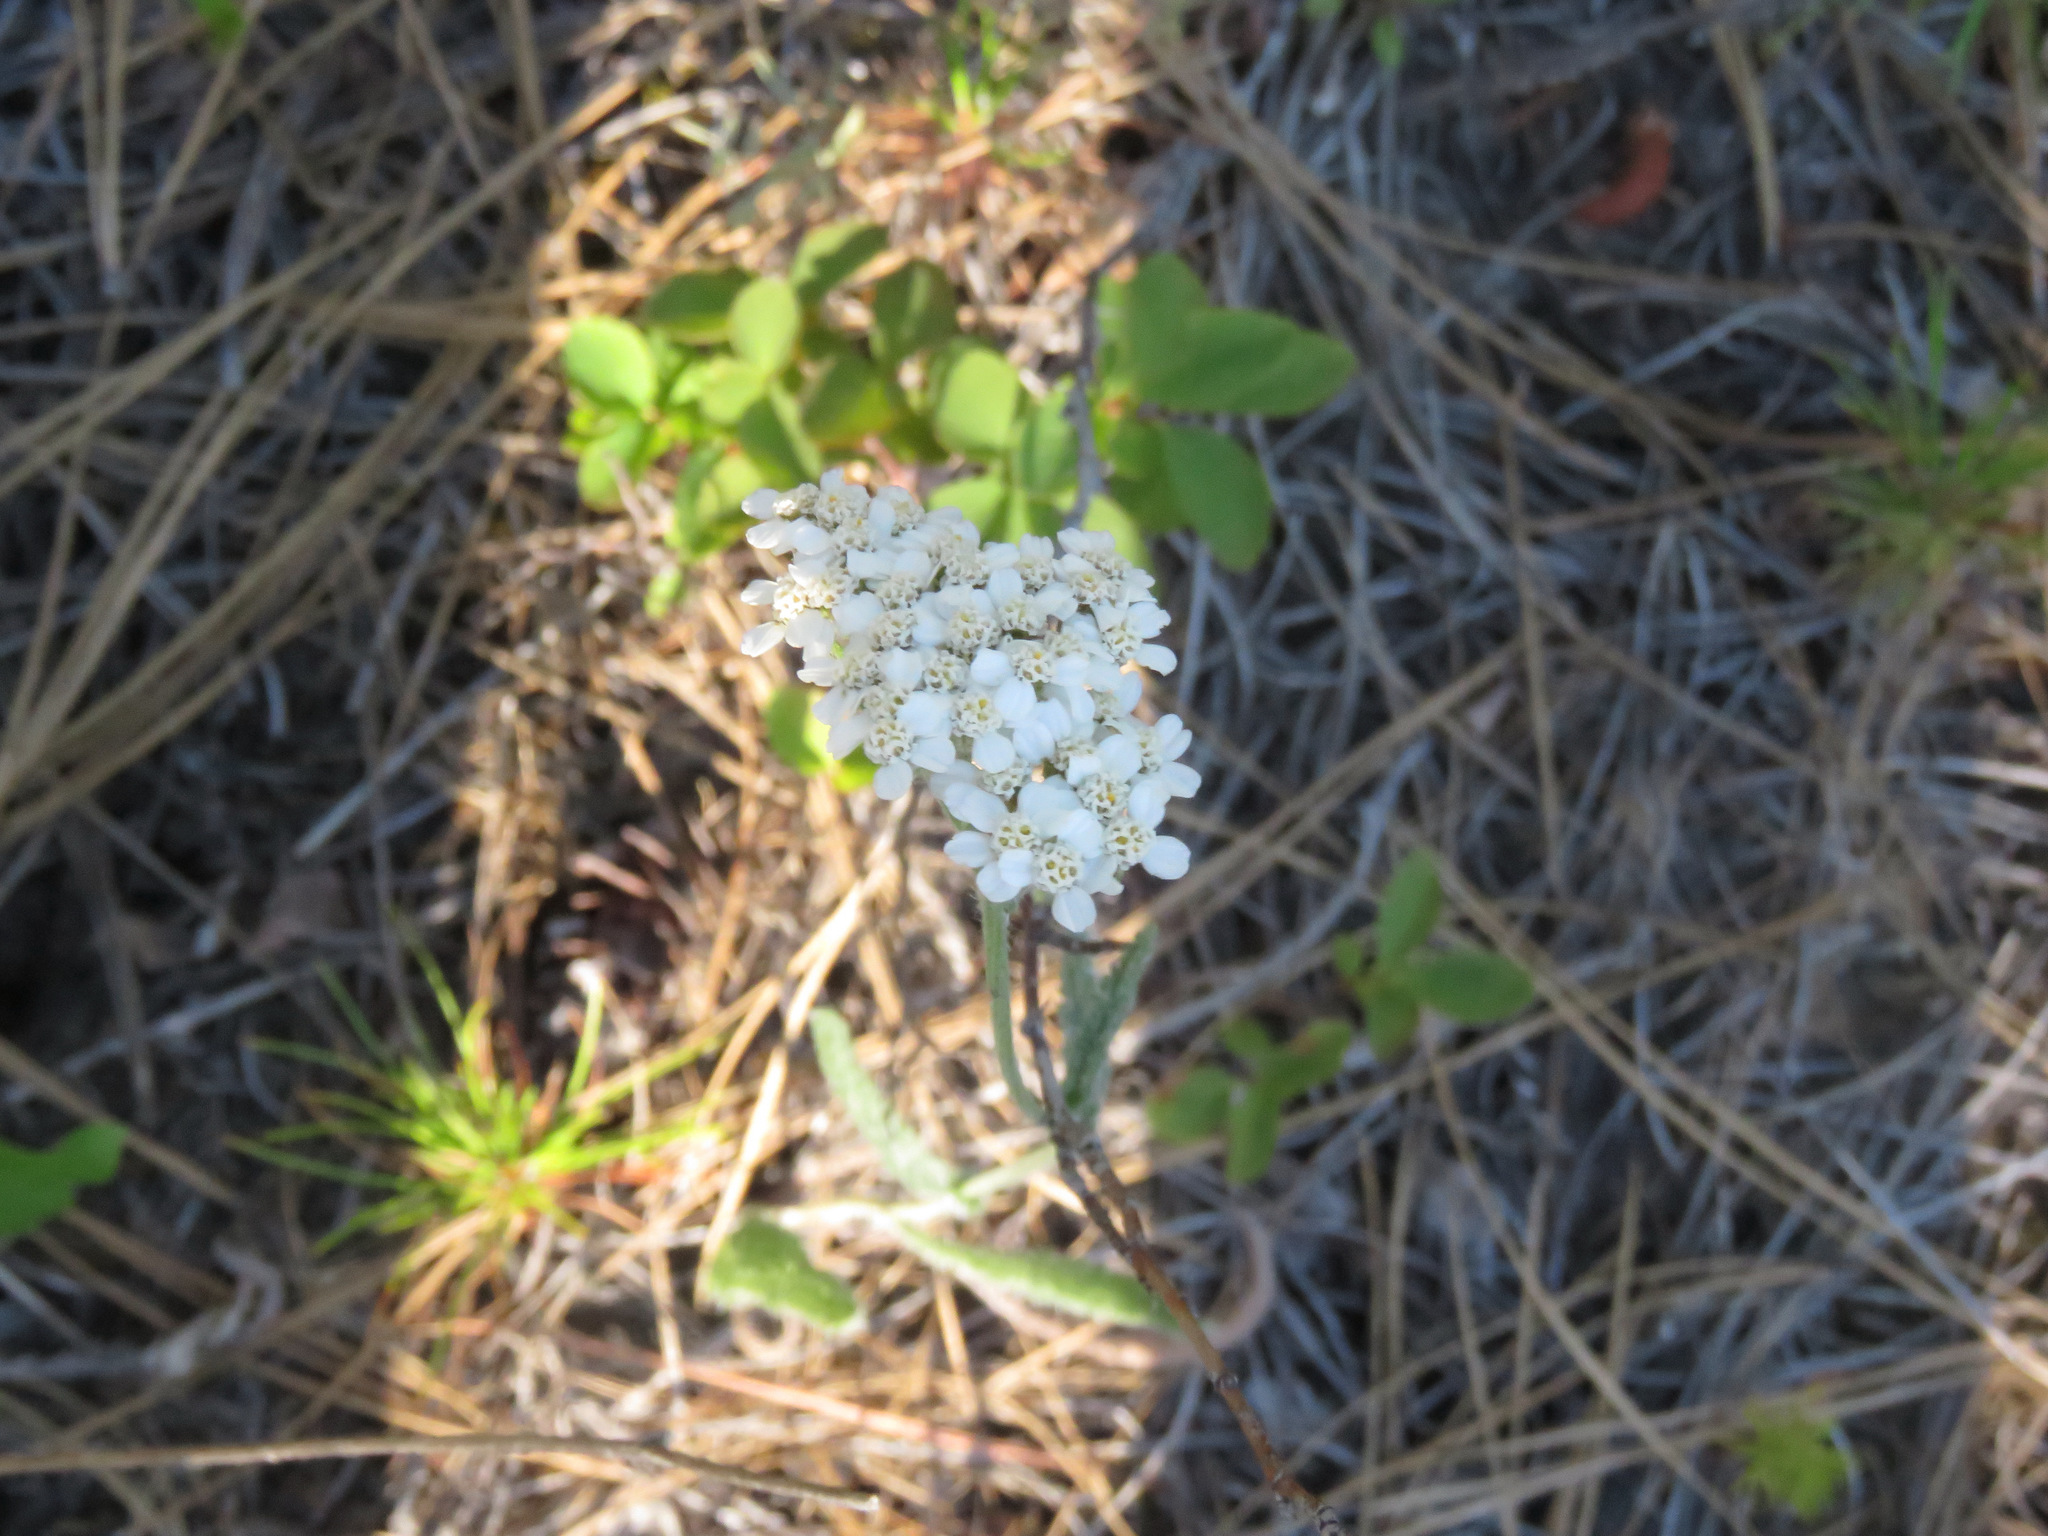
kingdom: Plantae
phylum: Tracheophyta
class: Magnoliopsida
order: Asterales
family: Asteraceae
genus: Achillea
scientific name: Achillea millefolium
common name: Yarrow
